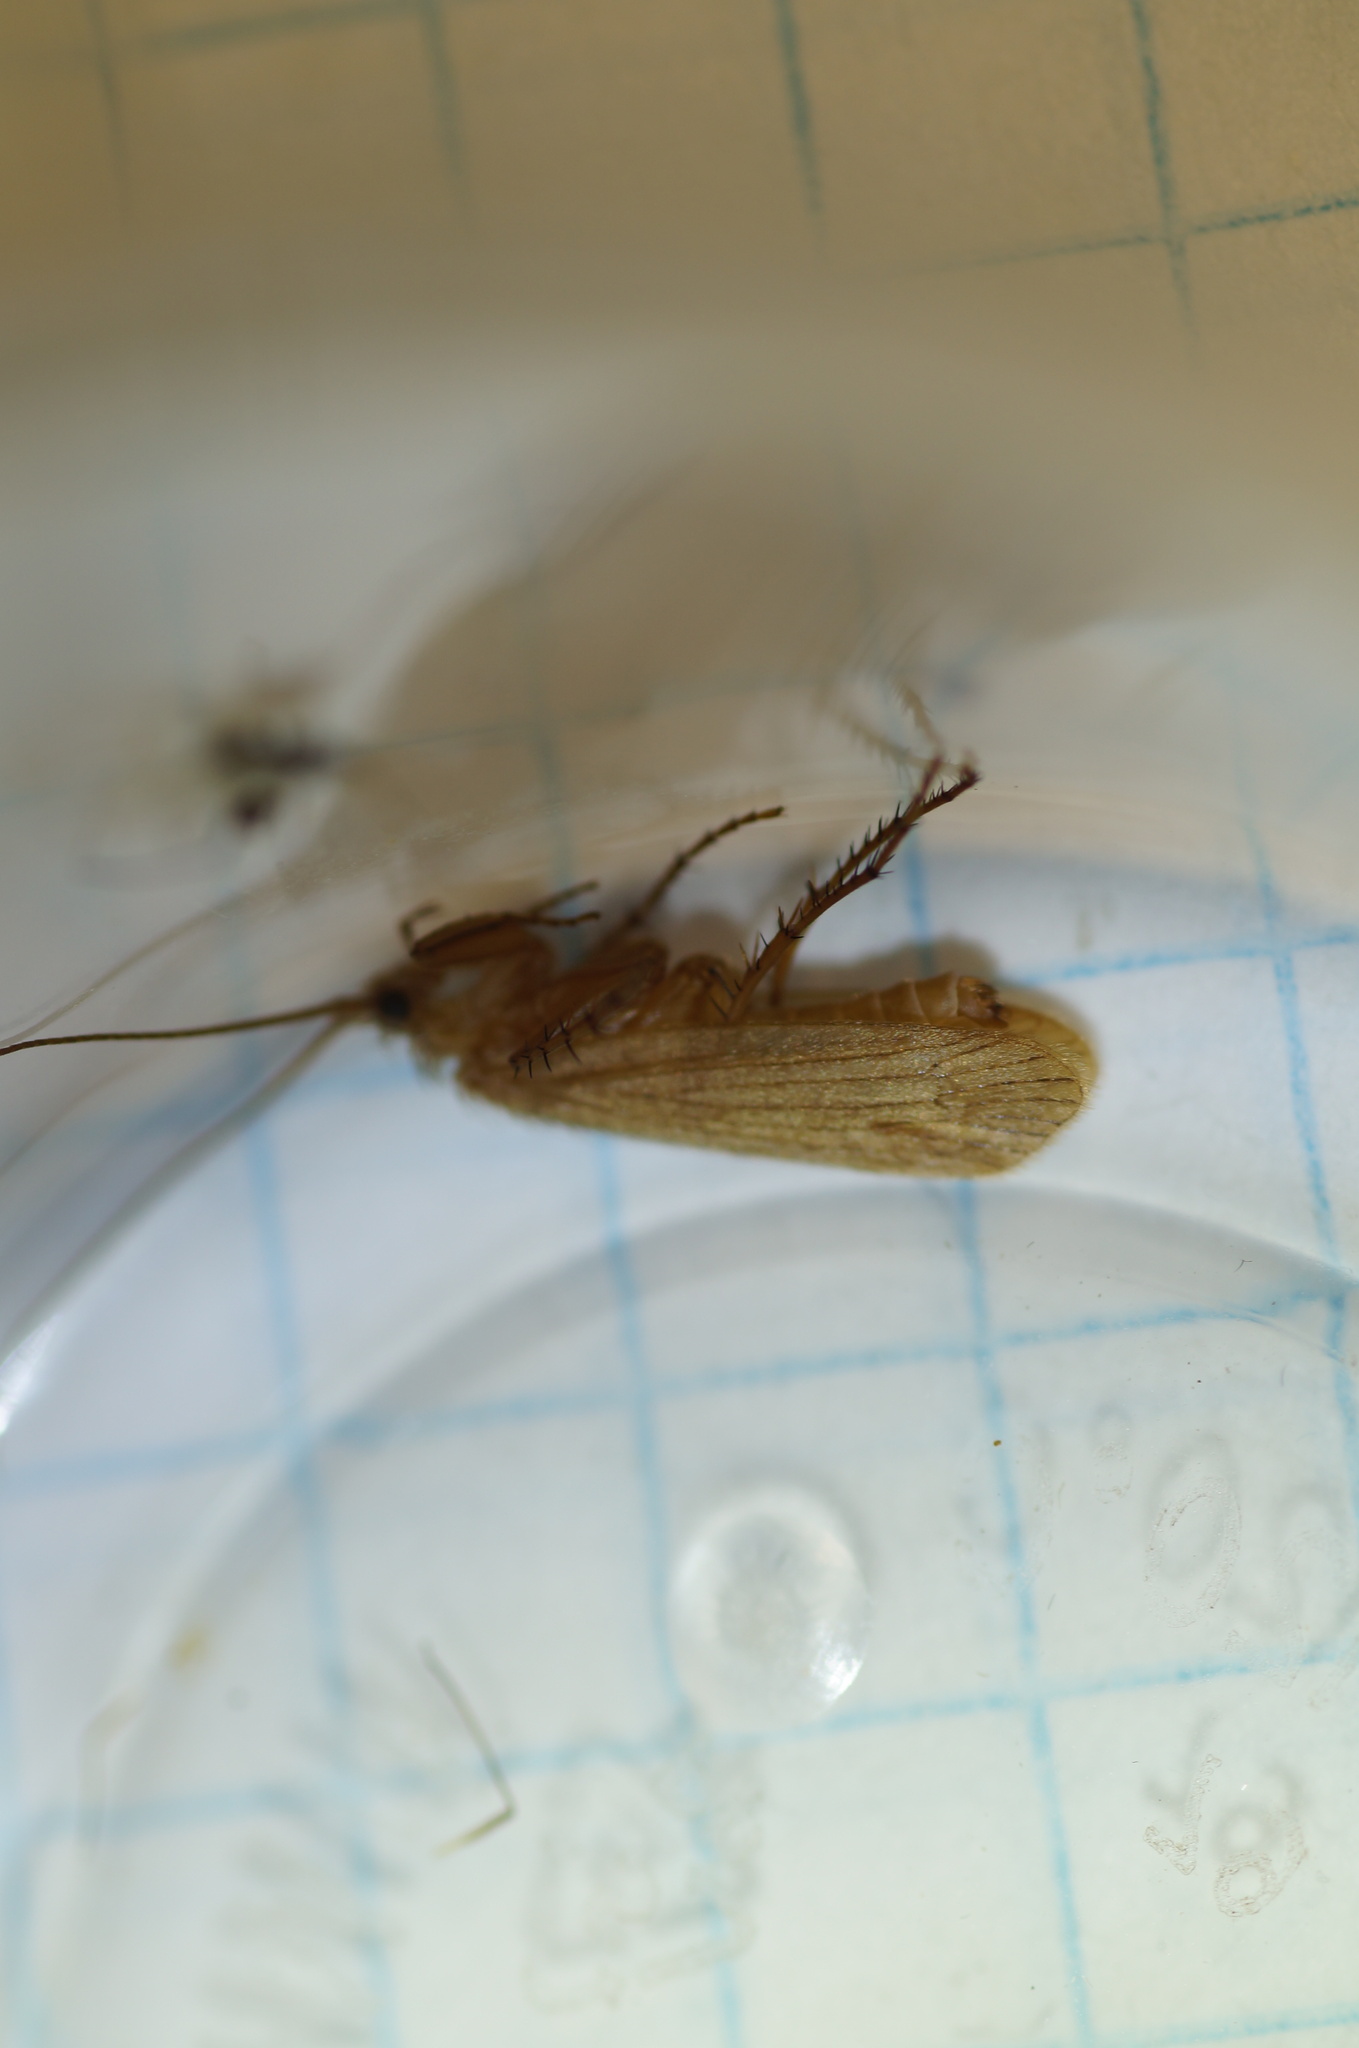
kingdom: Animalia
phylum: Arthropoda
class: Insecta
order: Trichoptera
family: Limnephilidae
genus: Pseudostenophylax
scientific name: Pseudostenophylax incisus
